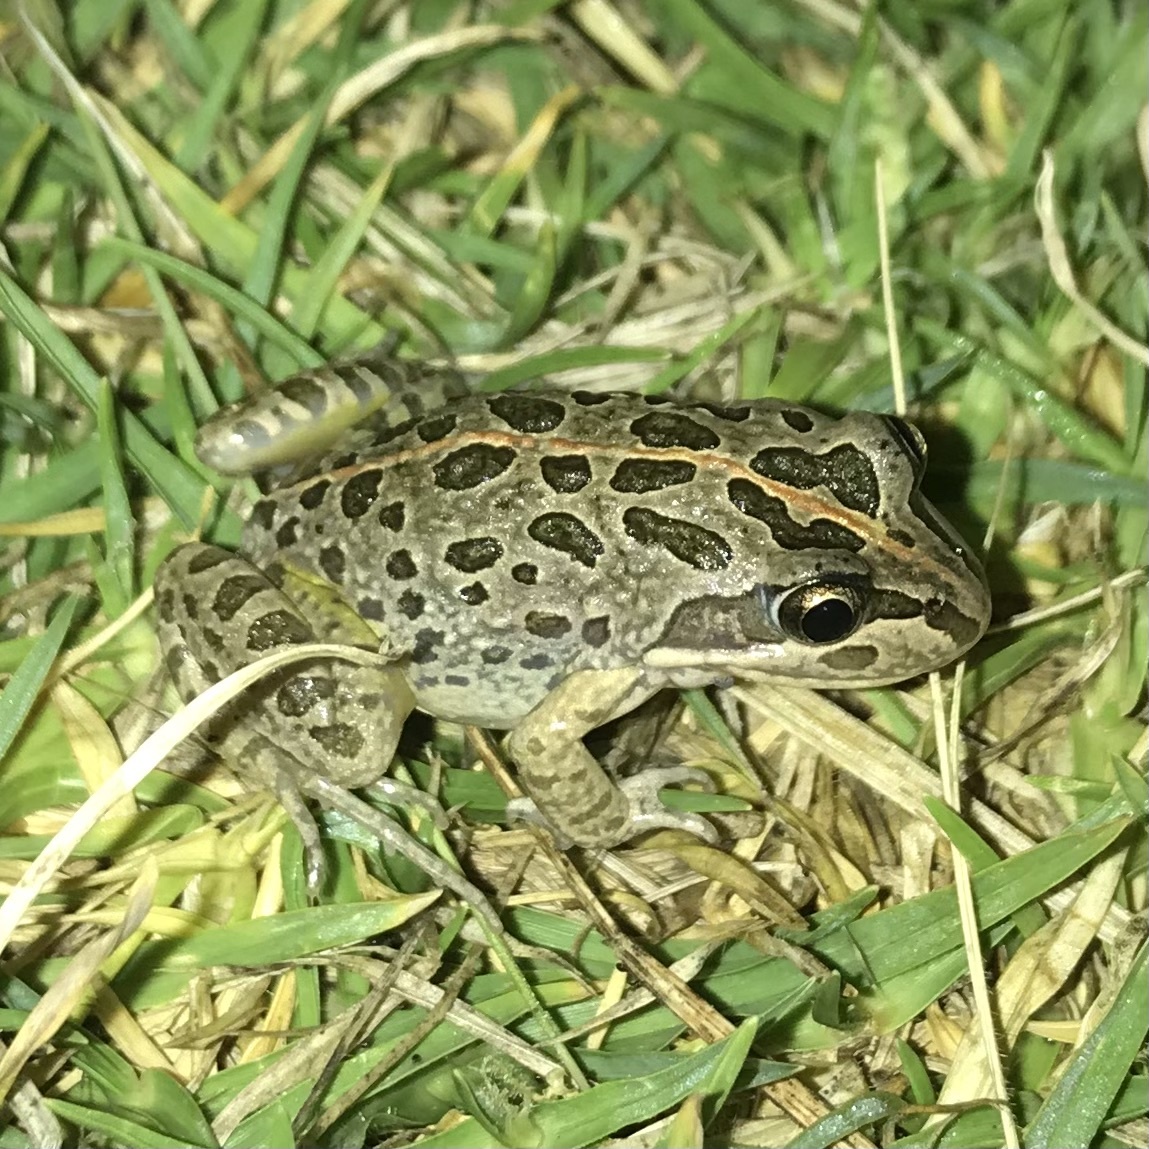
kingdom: Animalia
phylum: Chordata
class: Amphibia
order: Anura
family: Limnodynastidae
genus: Limnodynastes
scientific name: Limnodynastes tasmaniensis
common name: Spotted marsh frog
